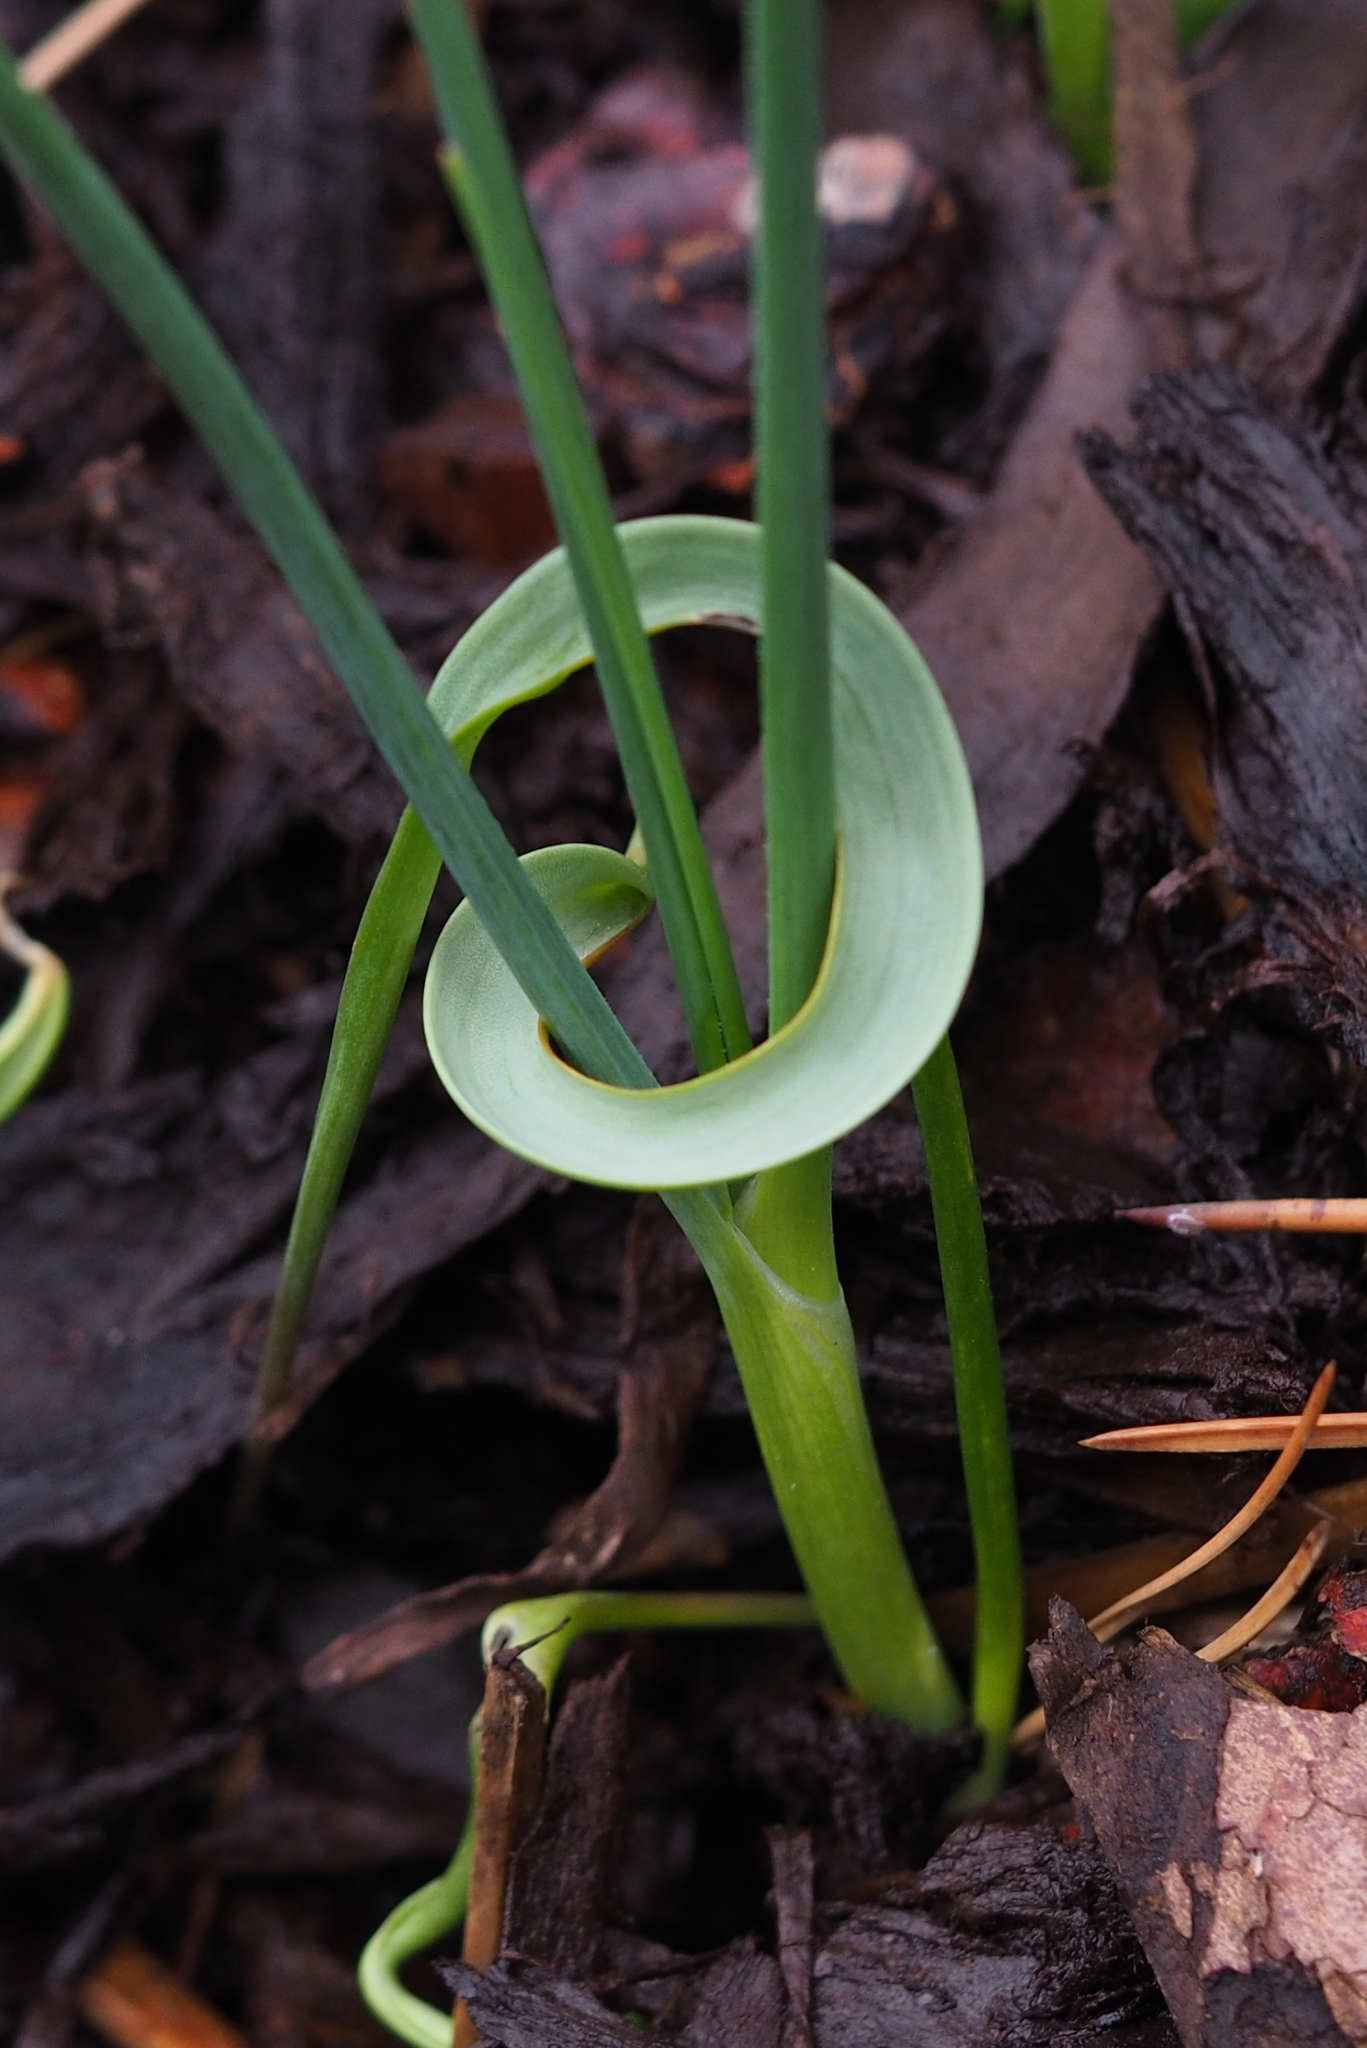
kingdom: Plantae
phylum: Tracheophyta
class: Liliopsida
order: Liliales
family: Liliaceae
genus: Tulipa
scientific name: Tulipa sylvestris
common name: Wild tulip
